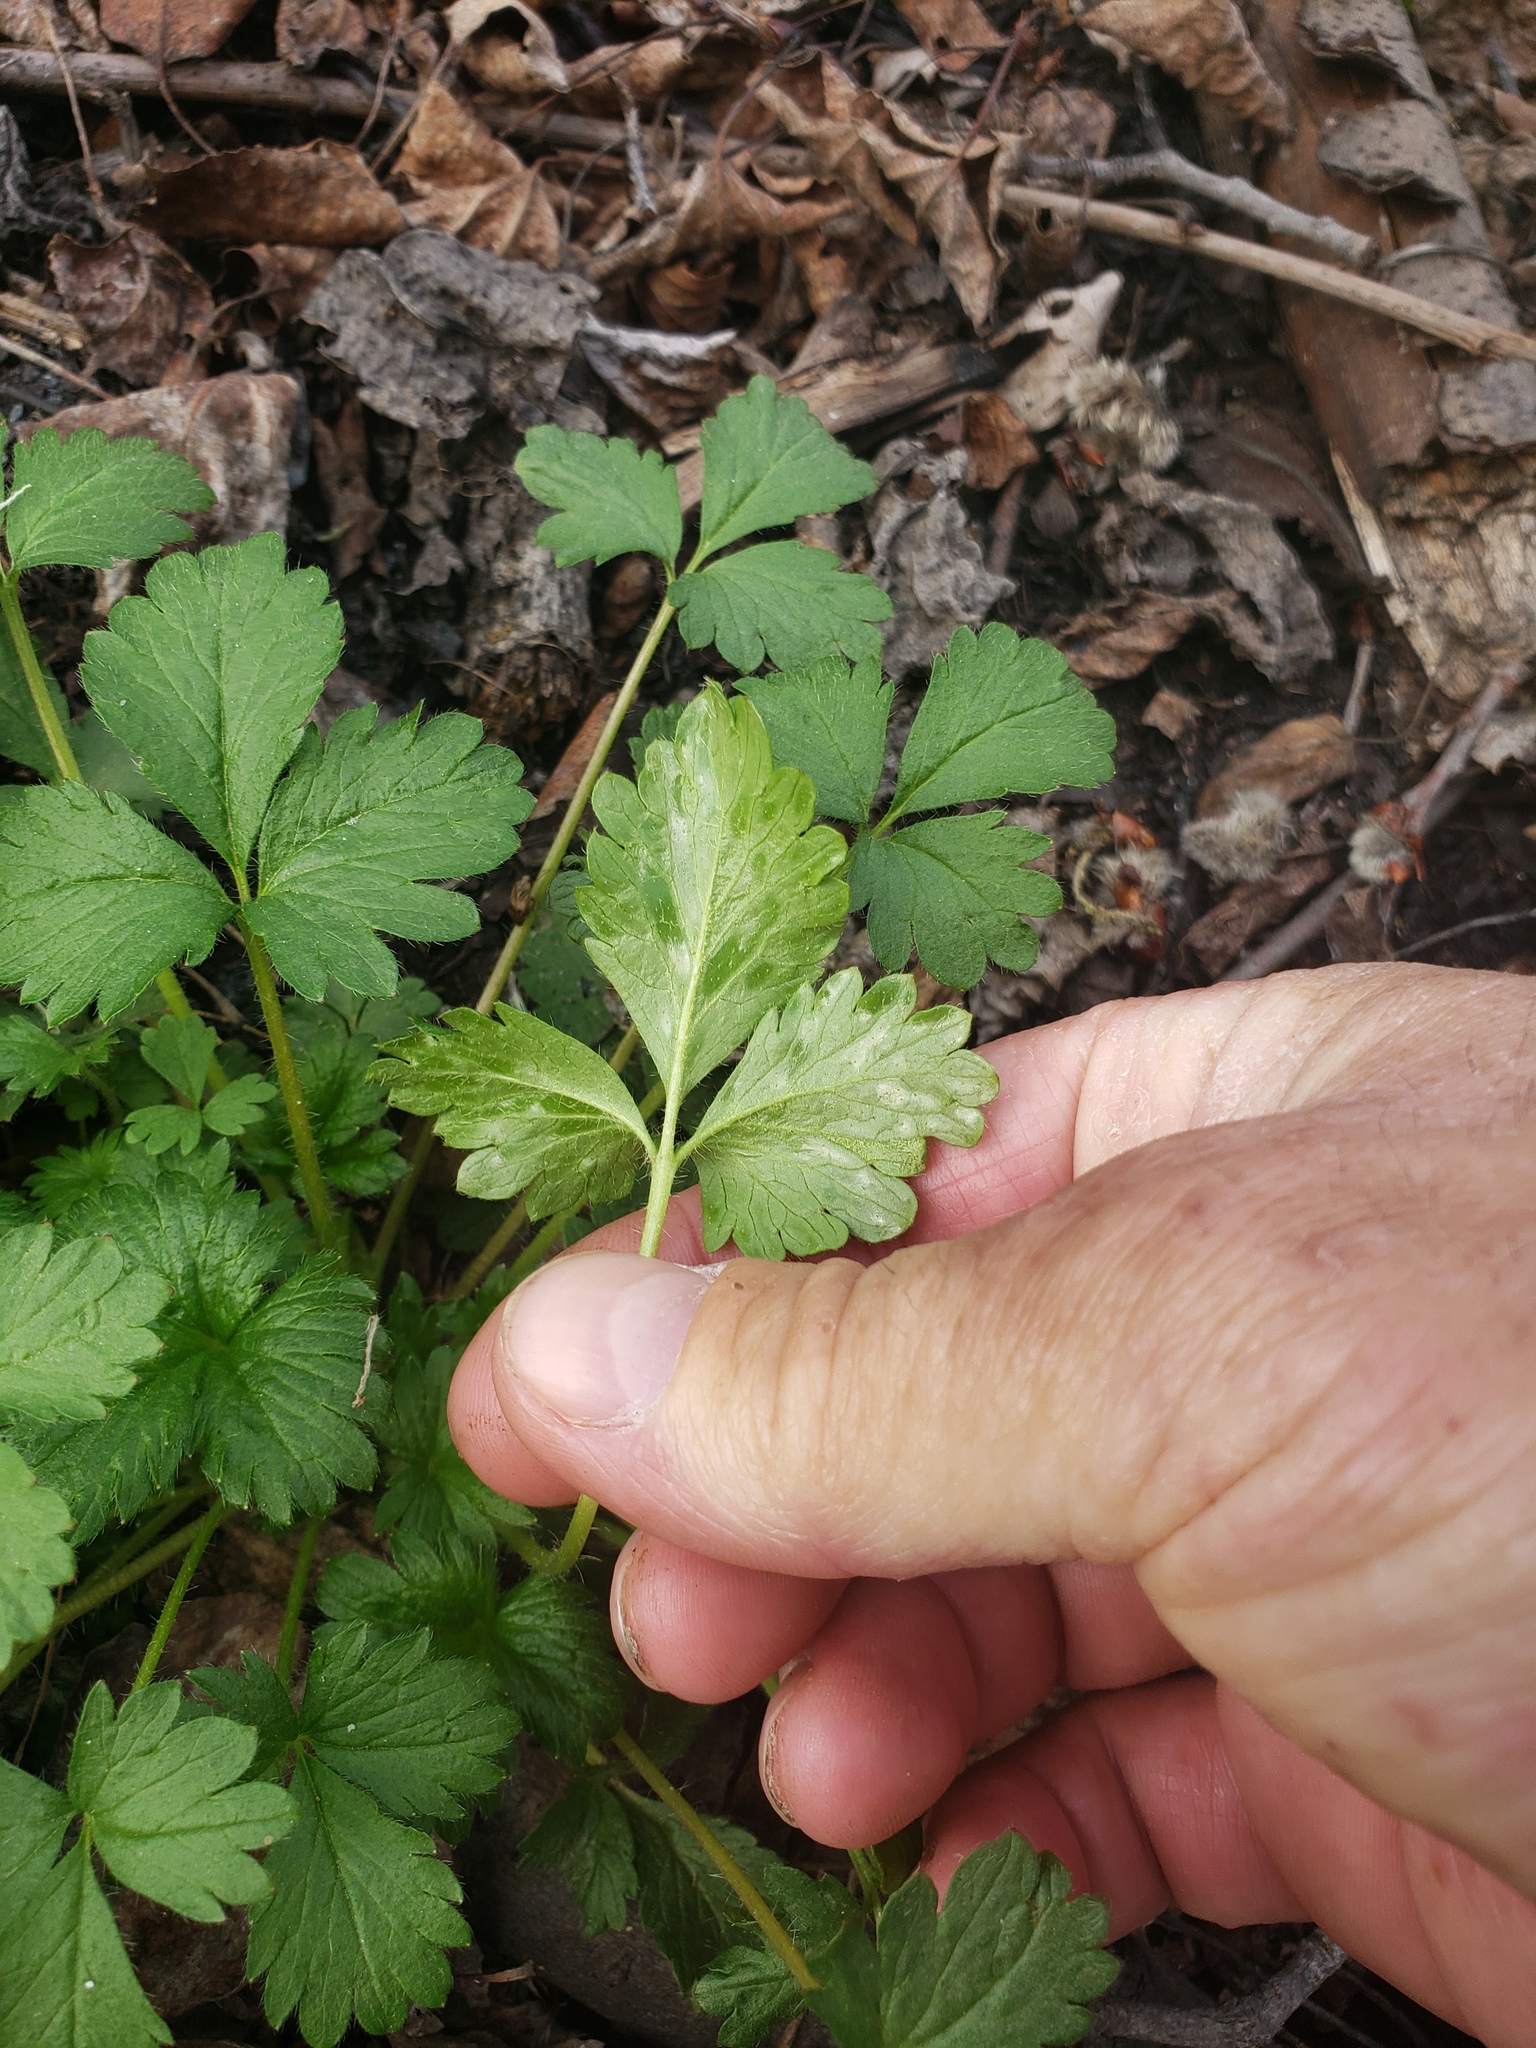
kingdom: Plantae
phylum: Tracheophyta
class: Magnoliopsida
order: Rosales
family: Rosaceae
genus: Potentilla
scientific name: Potentilla norvegica
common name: Ternate-leaved cinquefoil
